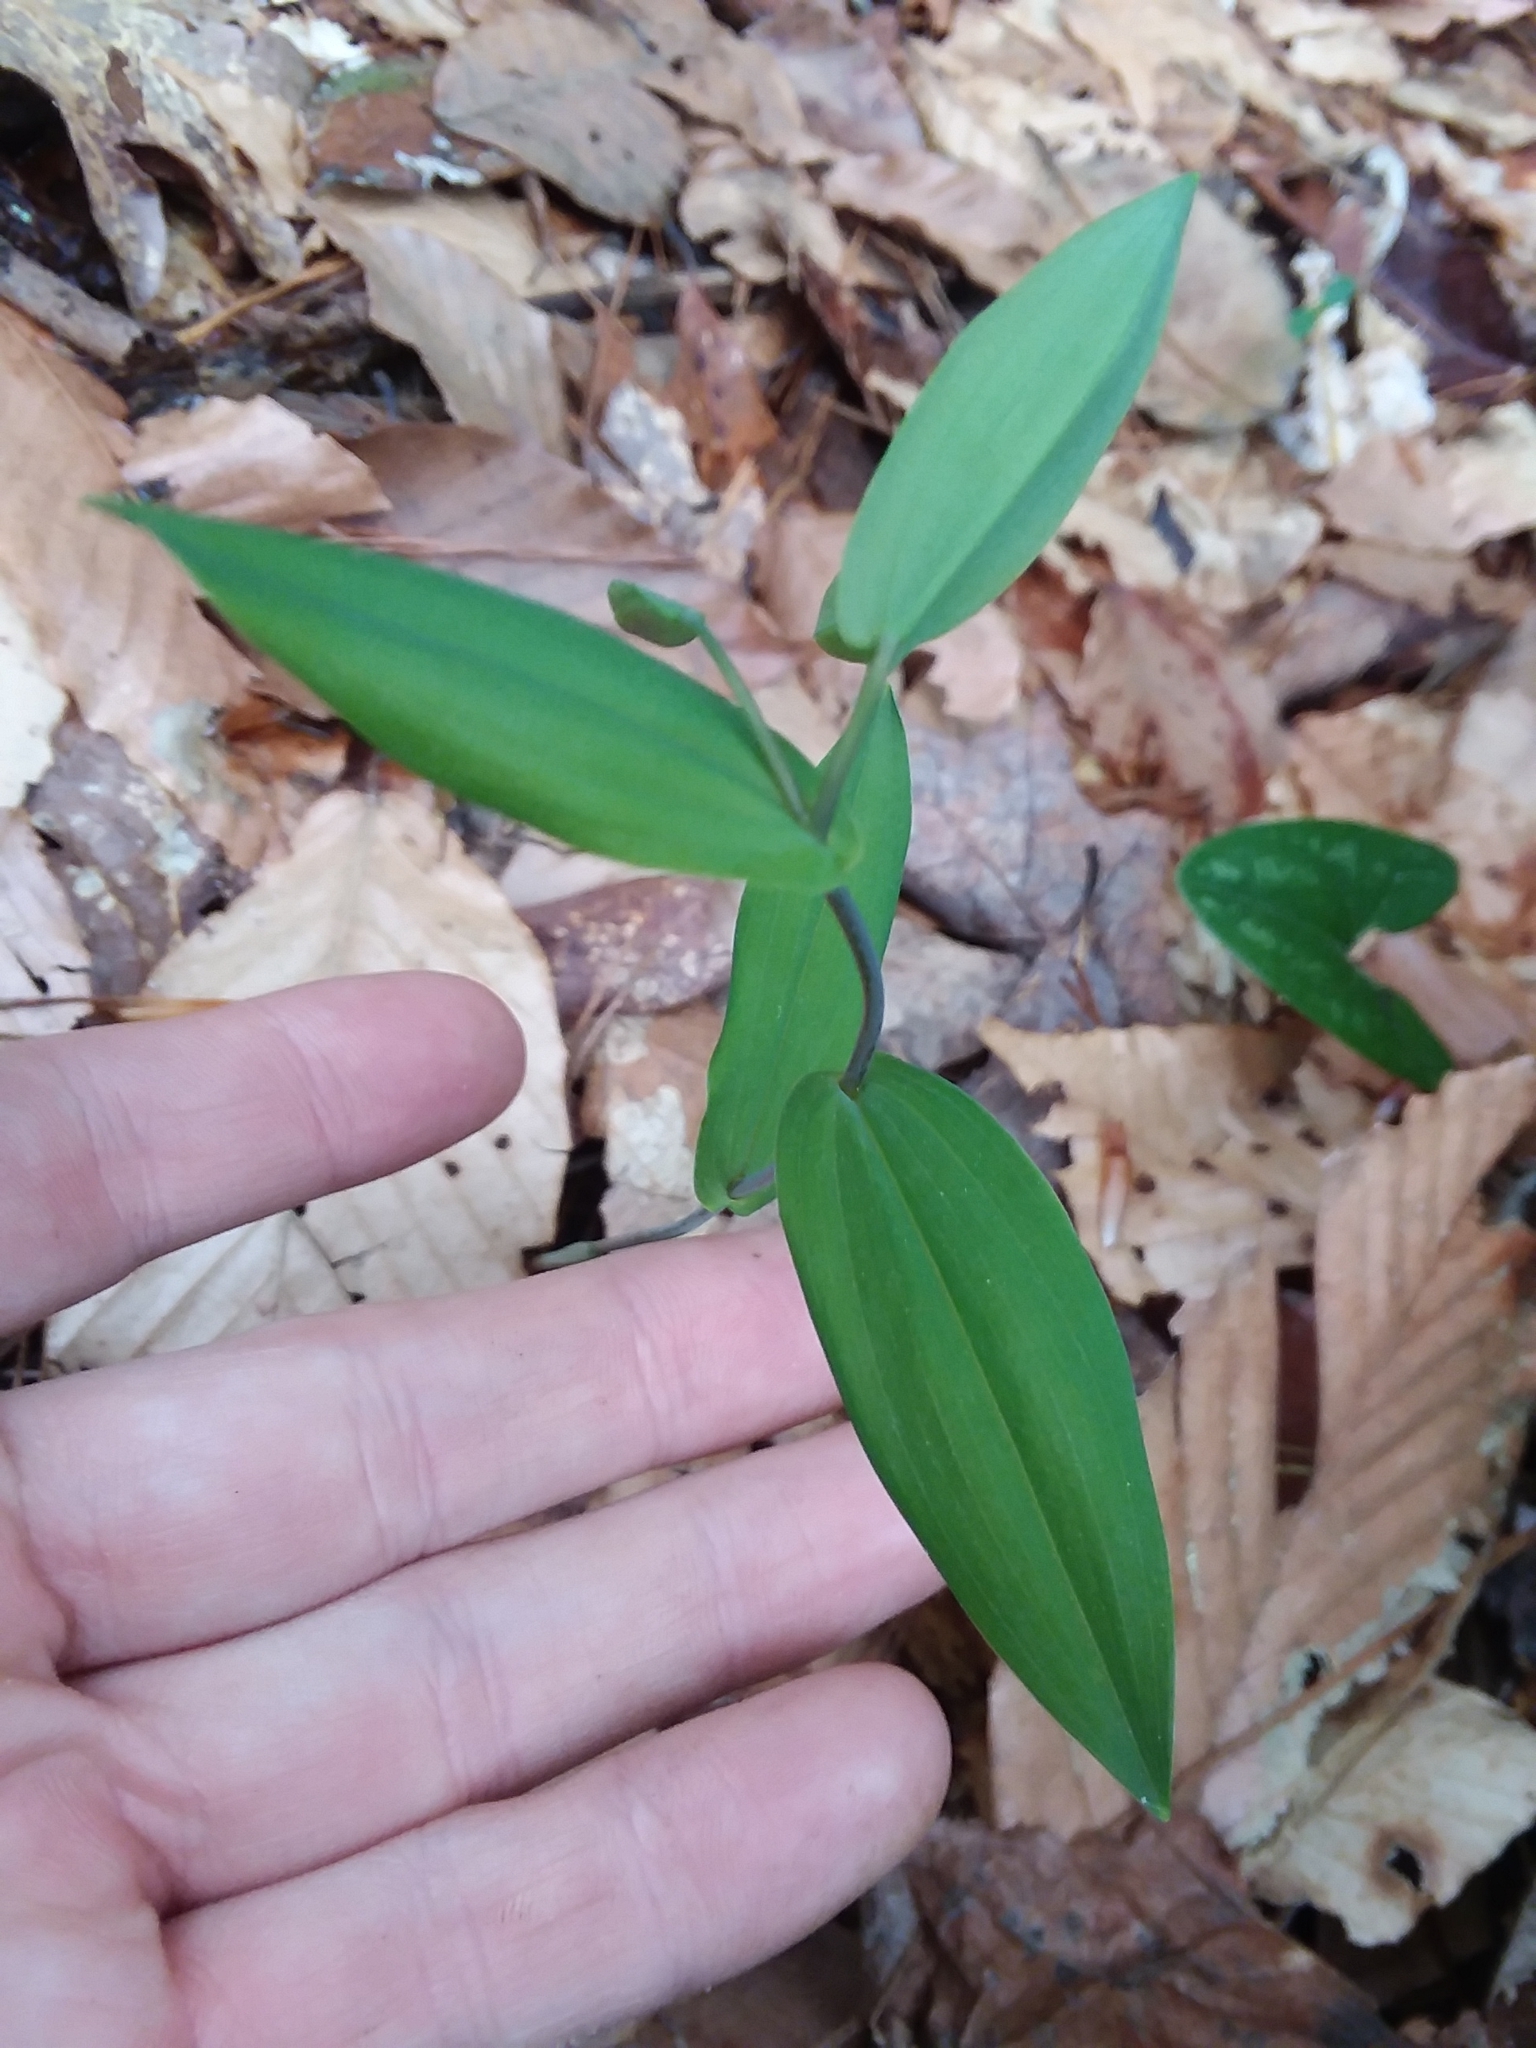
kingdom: Plantae
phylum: Tracheophyta
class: Liliopsida
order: Liliales
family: Colchicaceae
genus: Uvularia
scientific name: Uvularia perfoliata
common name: Perfoliate bellwort
